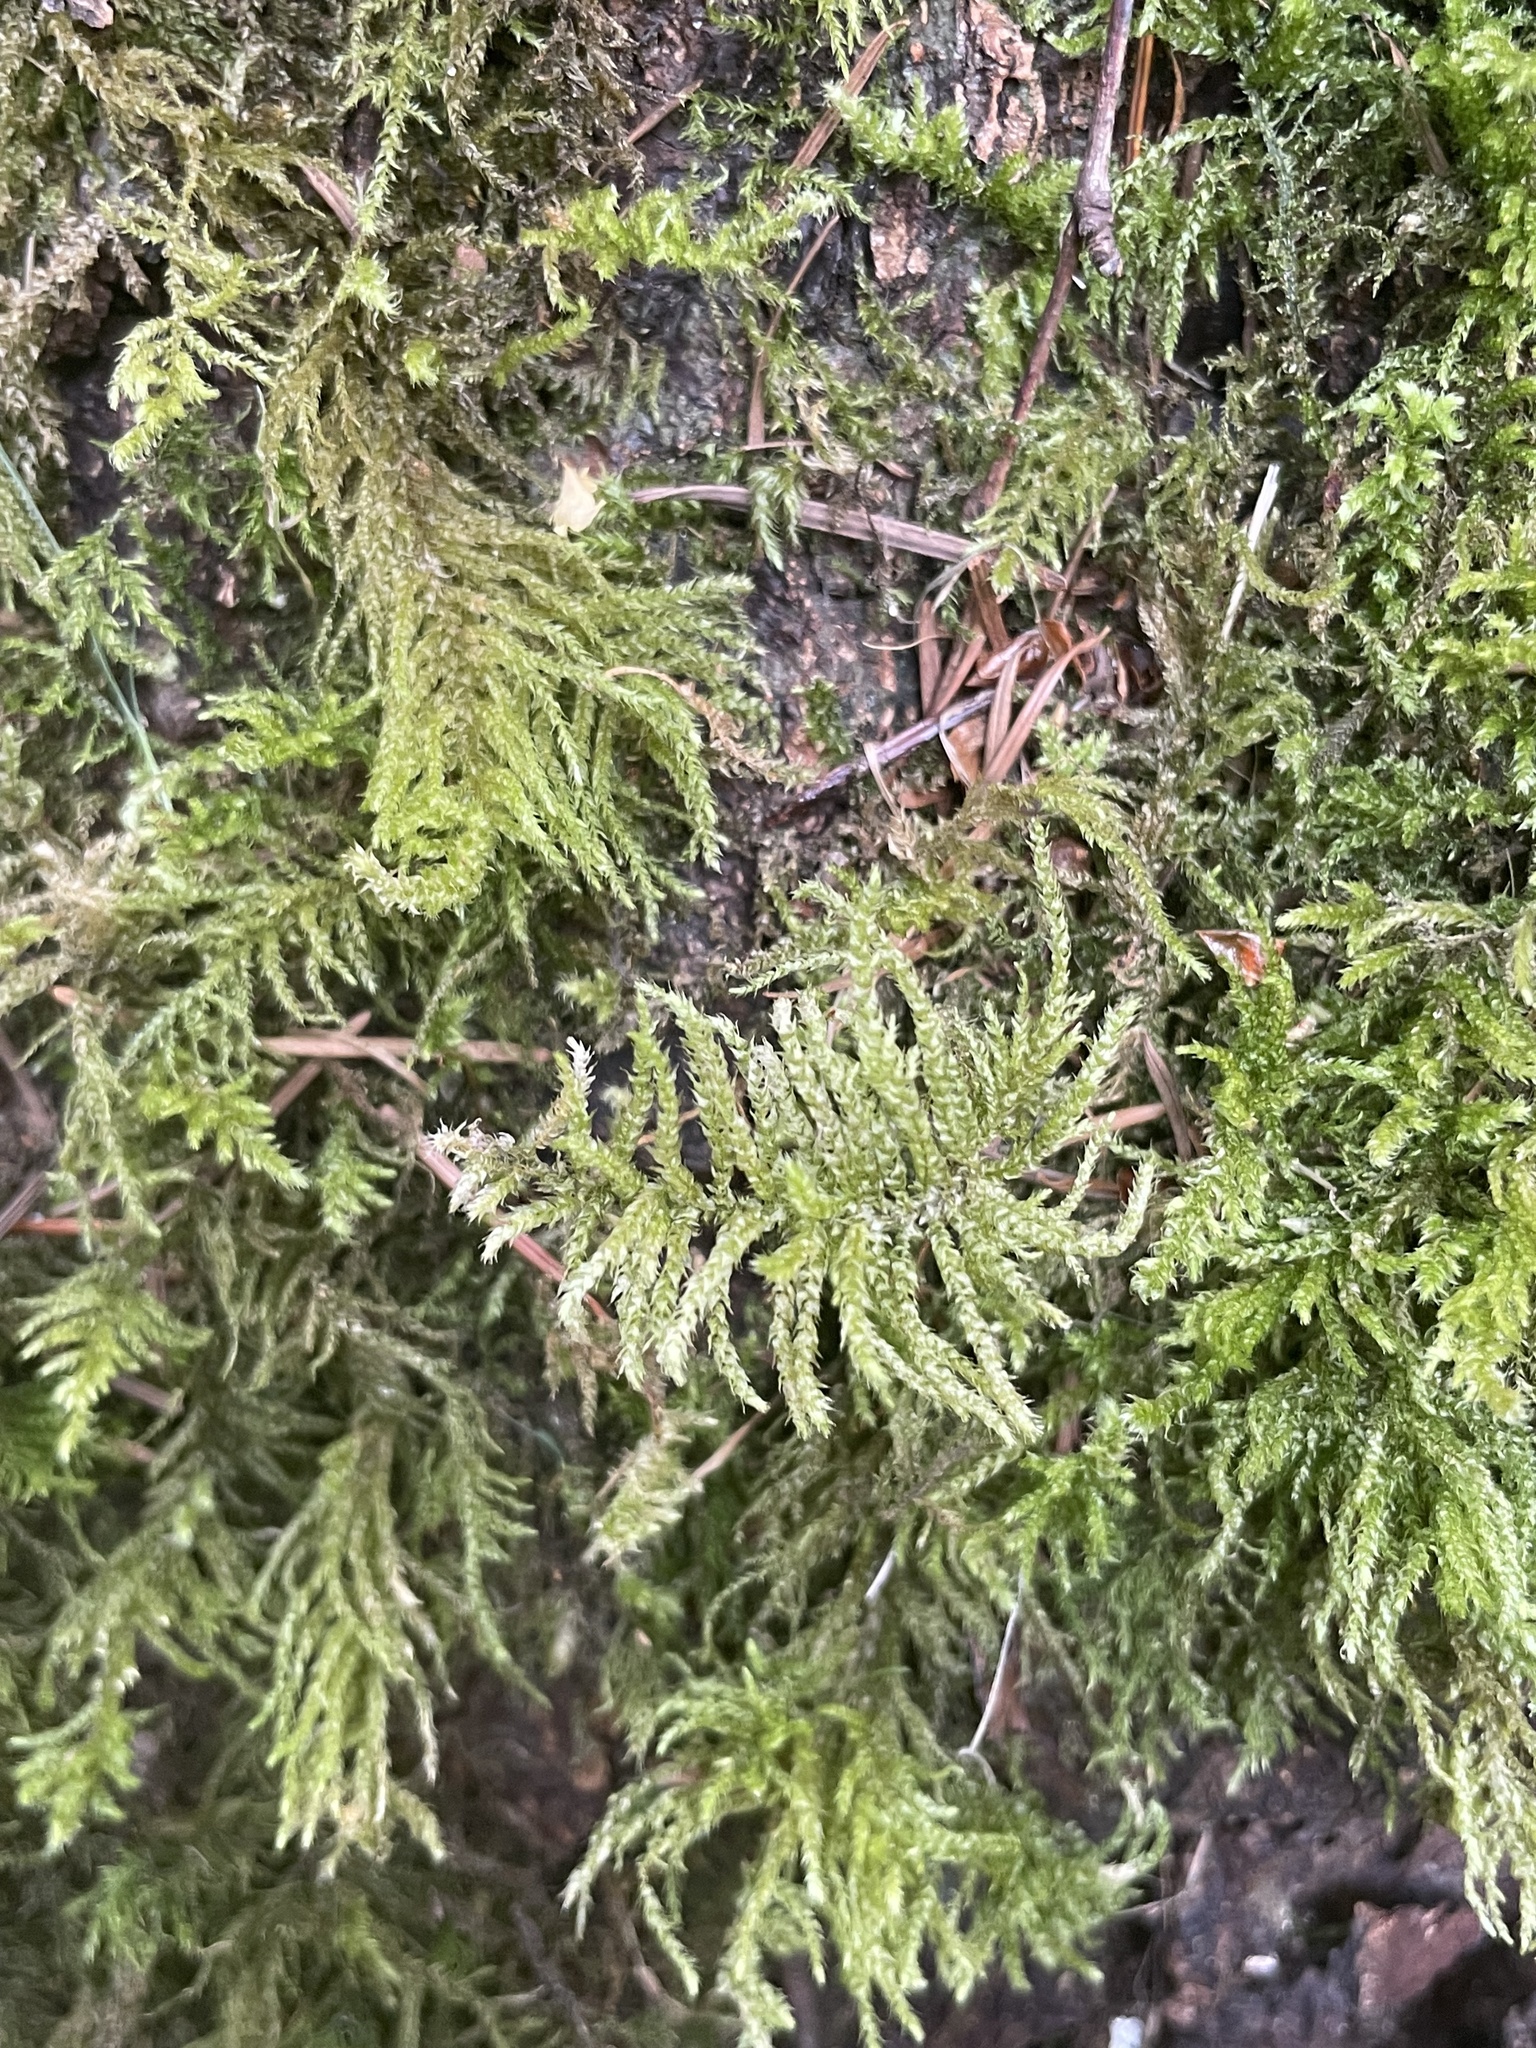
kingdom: Plantae
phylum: Bryophyta
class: Bryopsida
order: Hypnales
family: Brachytheciaceae
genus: Kindbergia
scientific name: Kindbergia oregana
